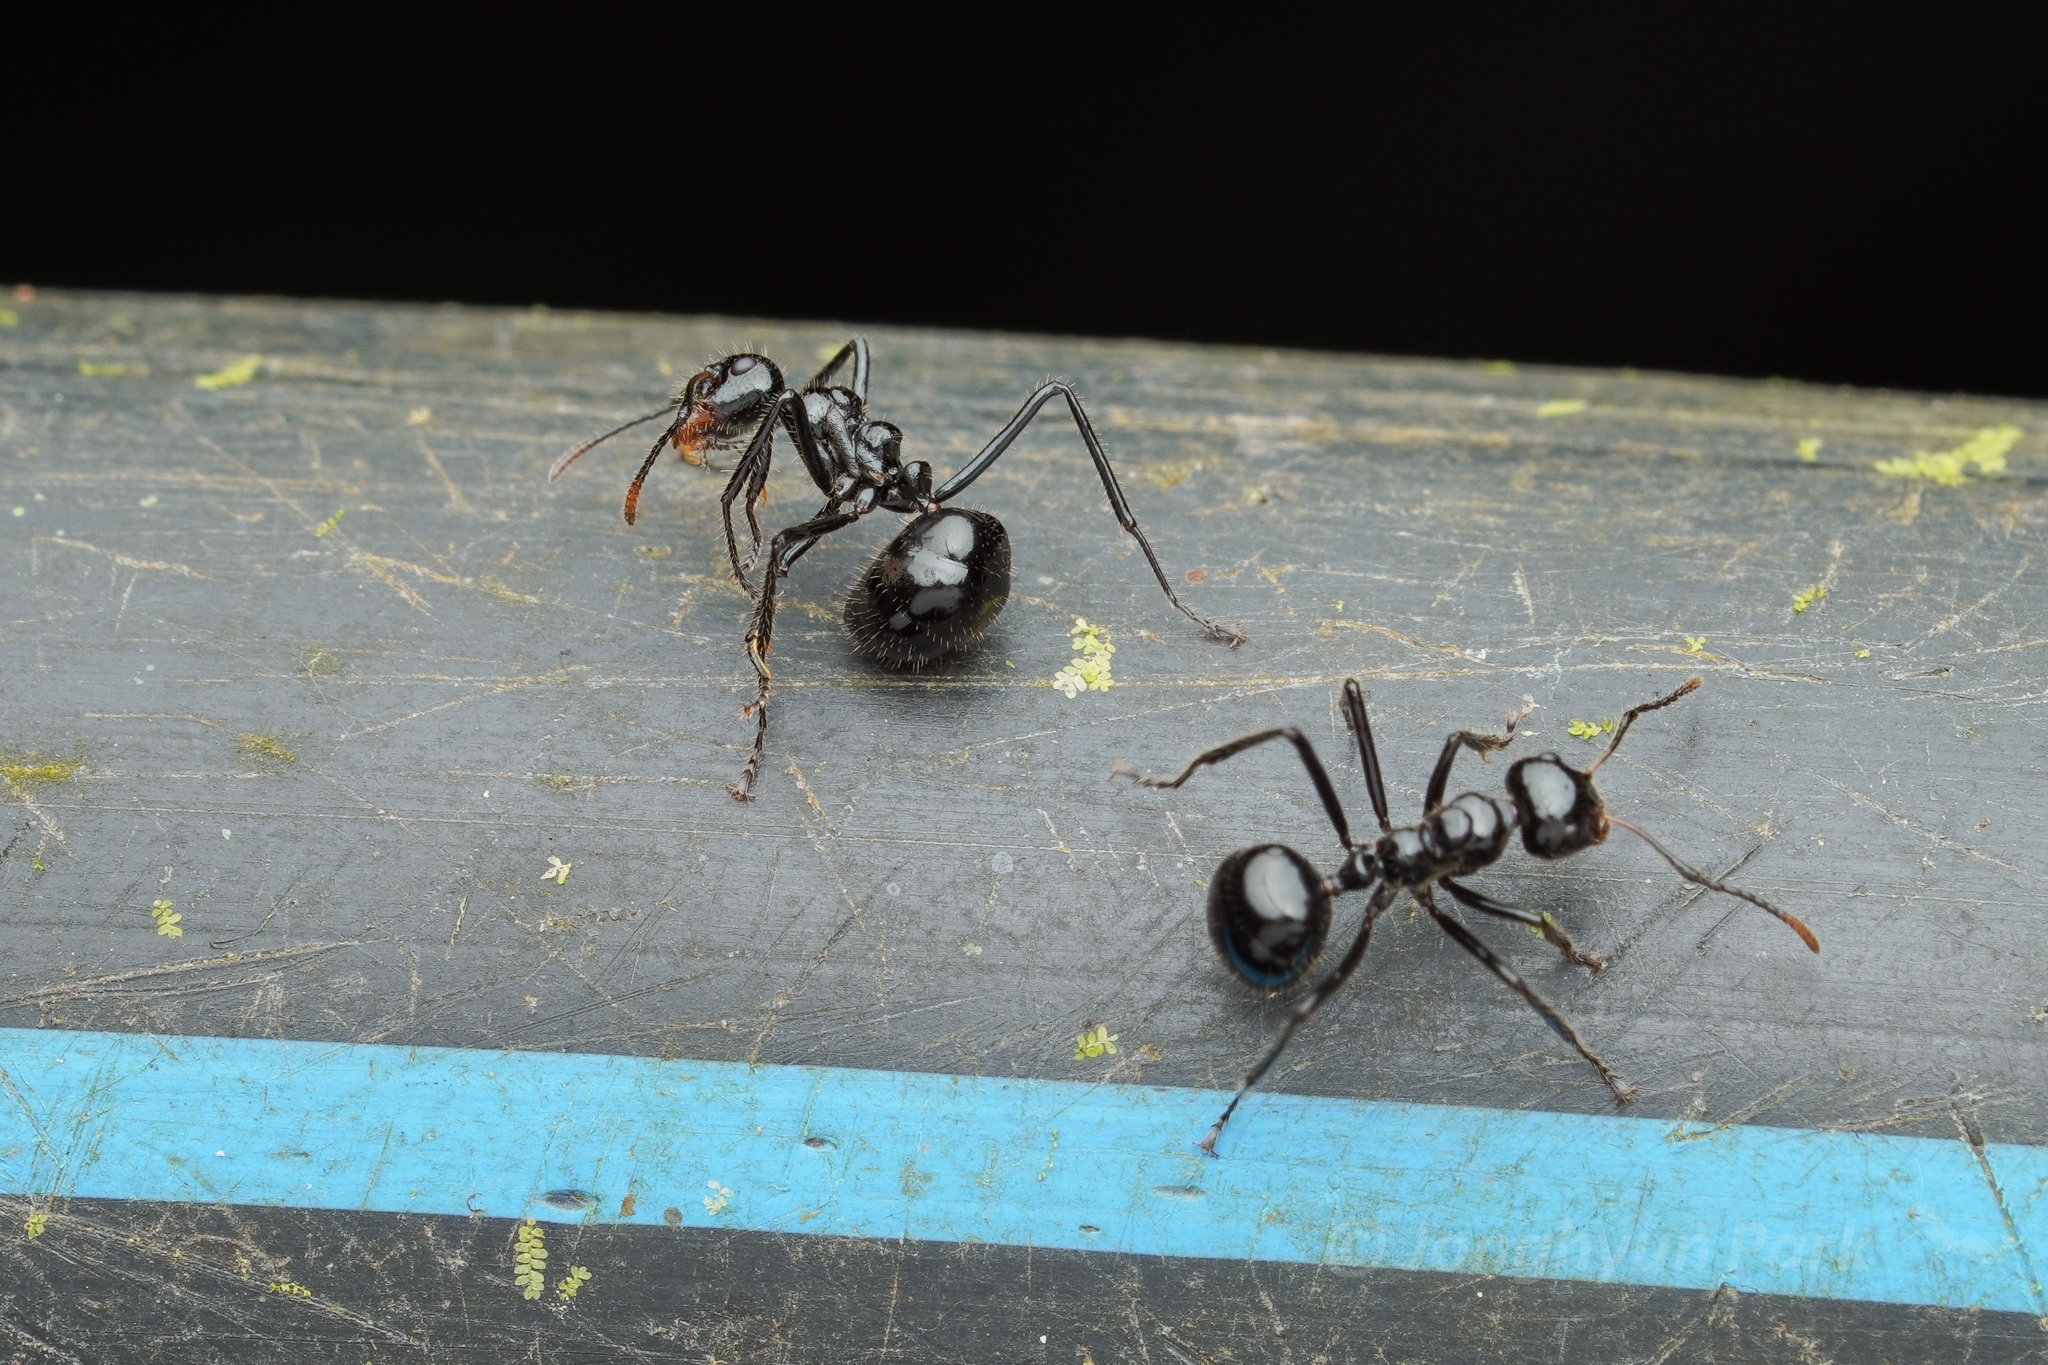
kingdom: Animalia
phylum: Arthropoda
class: Insecta
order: Hymenoptera
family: Formicidae
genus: Dolichoderus
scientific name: Dolichoderus sulcaticeps
